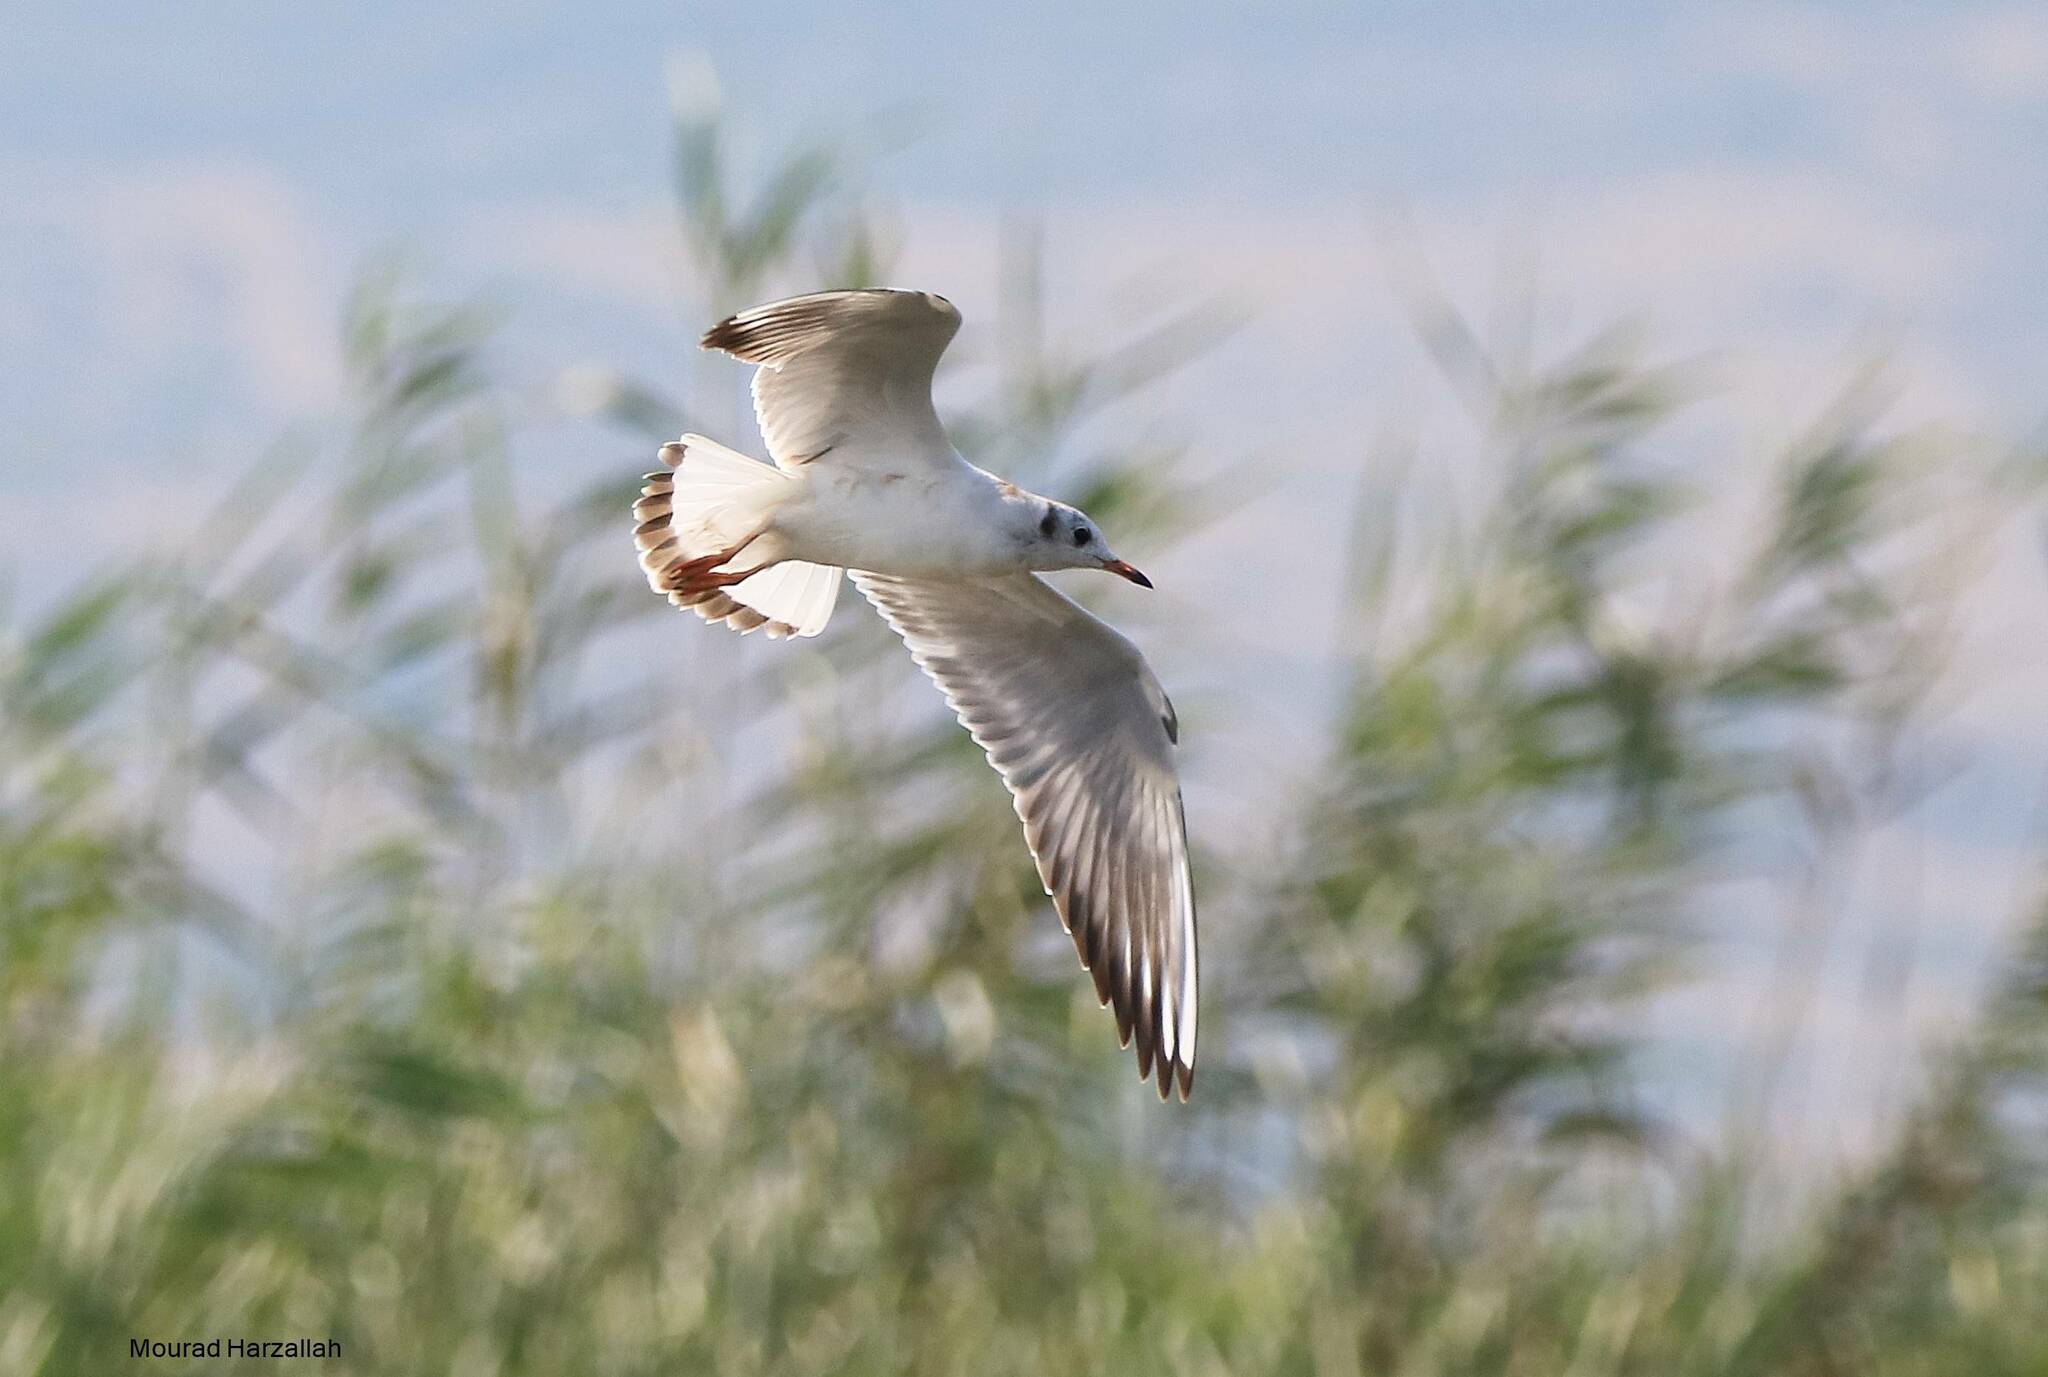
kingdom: Animalia
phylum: Chordata
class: Aves
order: Charadriiformes
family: Laridae
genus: Chroicocephalus
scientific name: Chroicocephalus ridibundus
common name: Black-headed gull
